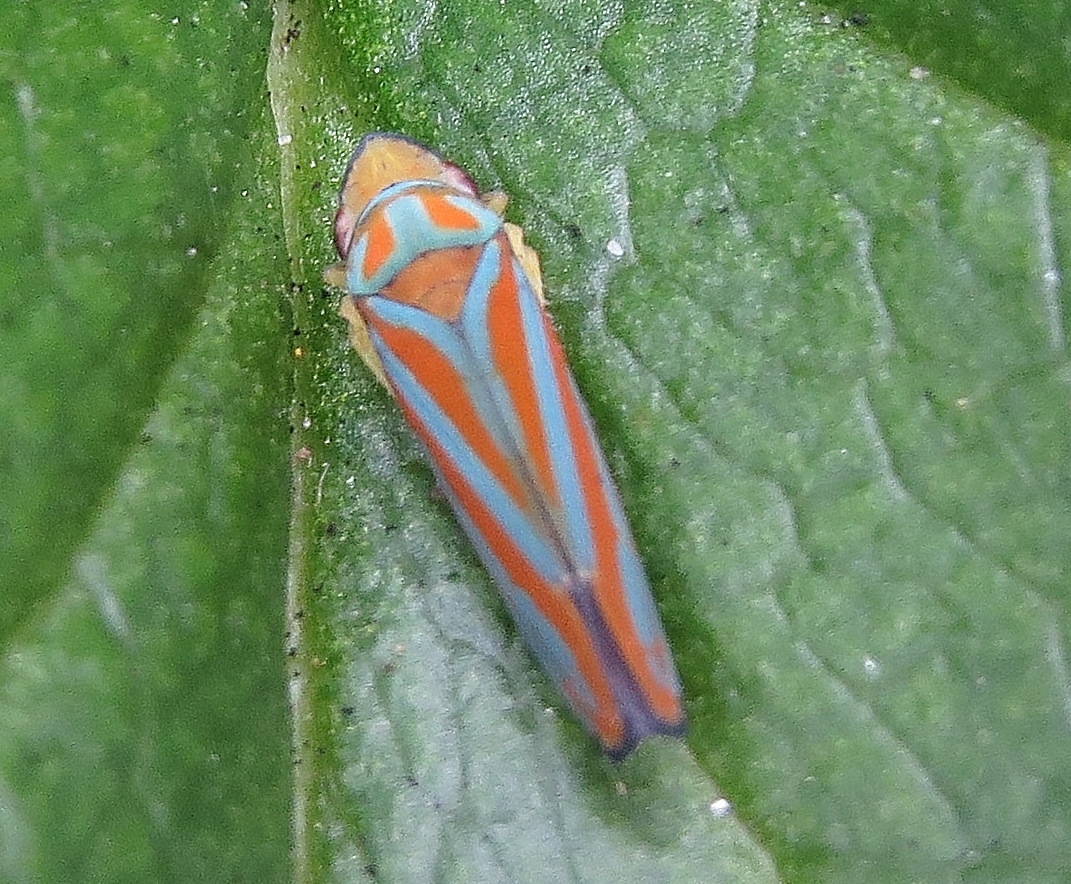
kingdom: Animalia
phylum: Arthropoda
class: Insecta
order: Hemiptera
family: Cicadellidae
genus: Graphocephala
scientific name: Graphocephala coccinea
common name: Candy-striped leafhopper
